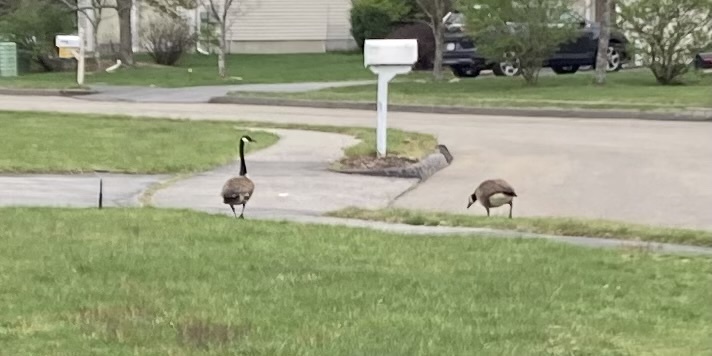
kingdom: Animalia
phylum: Chordata
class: Aves
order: Anseriformes
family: Anatidae
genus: Branta
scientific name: Branta canadensis
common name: Canada goose
